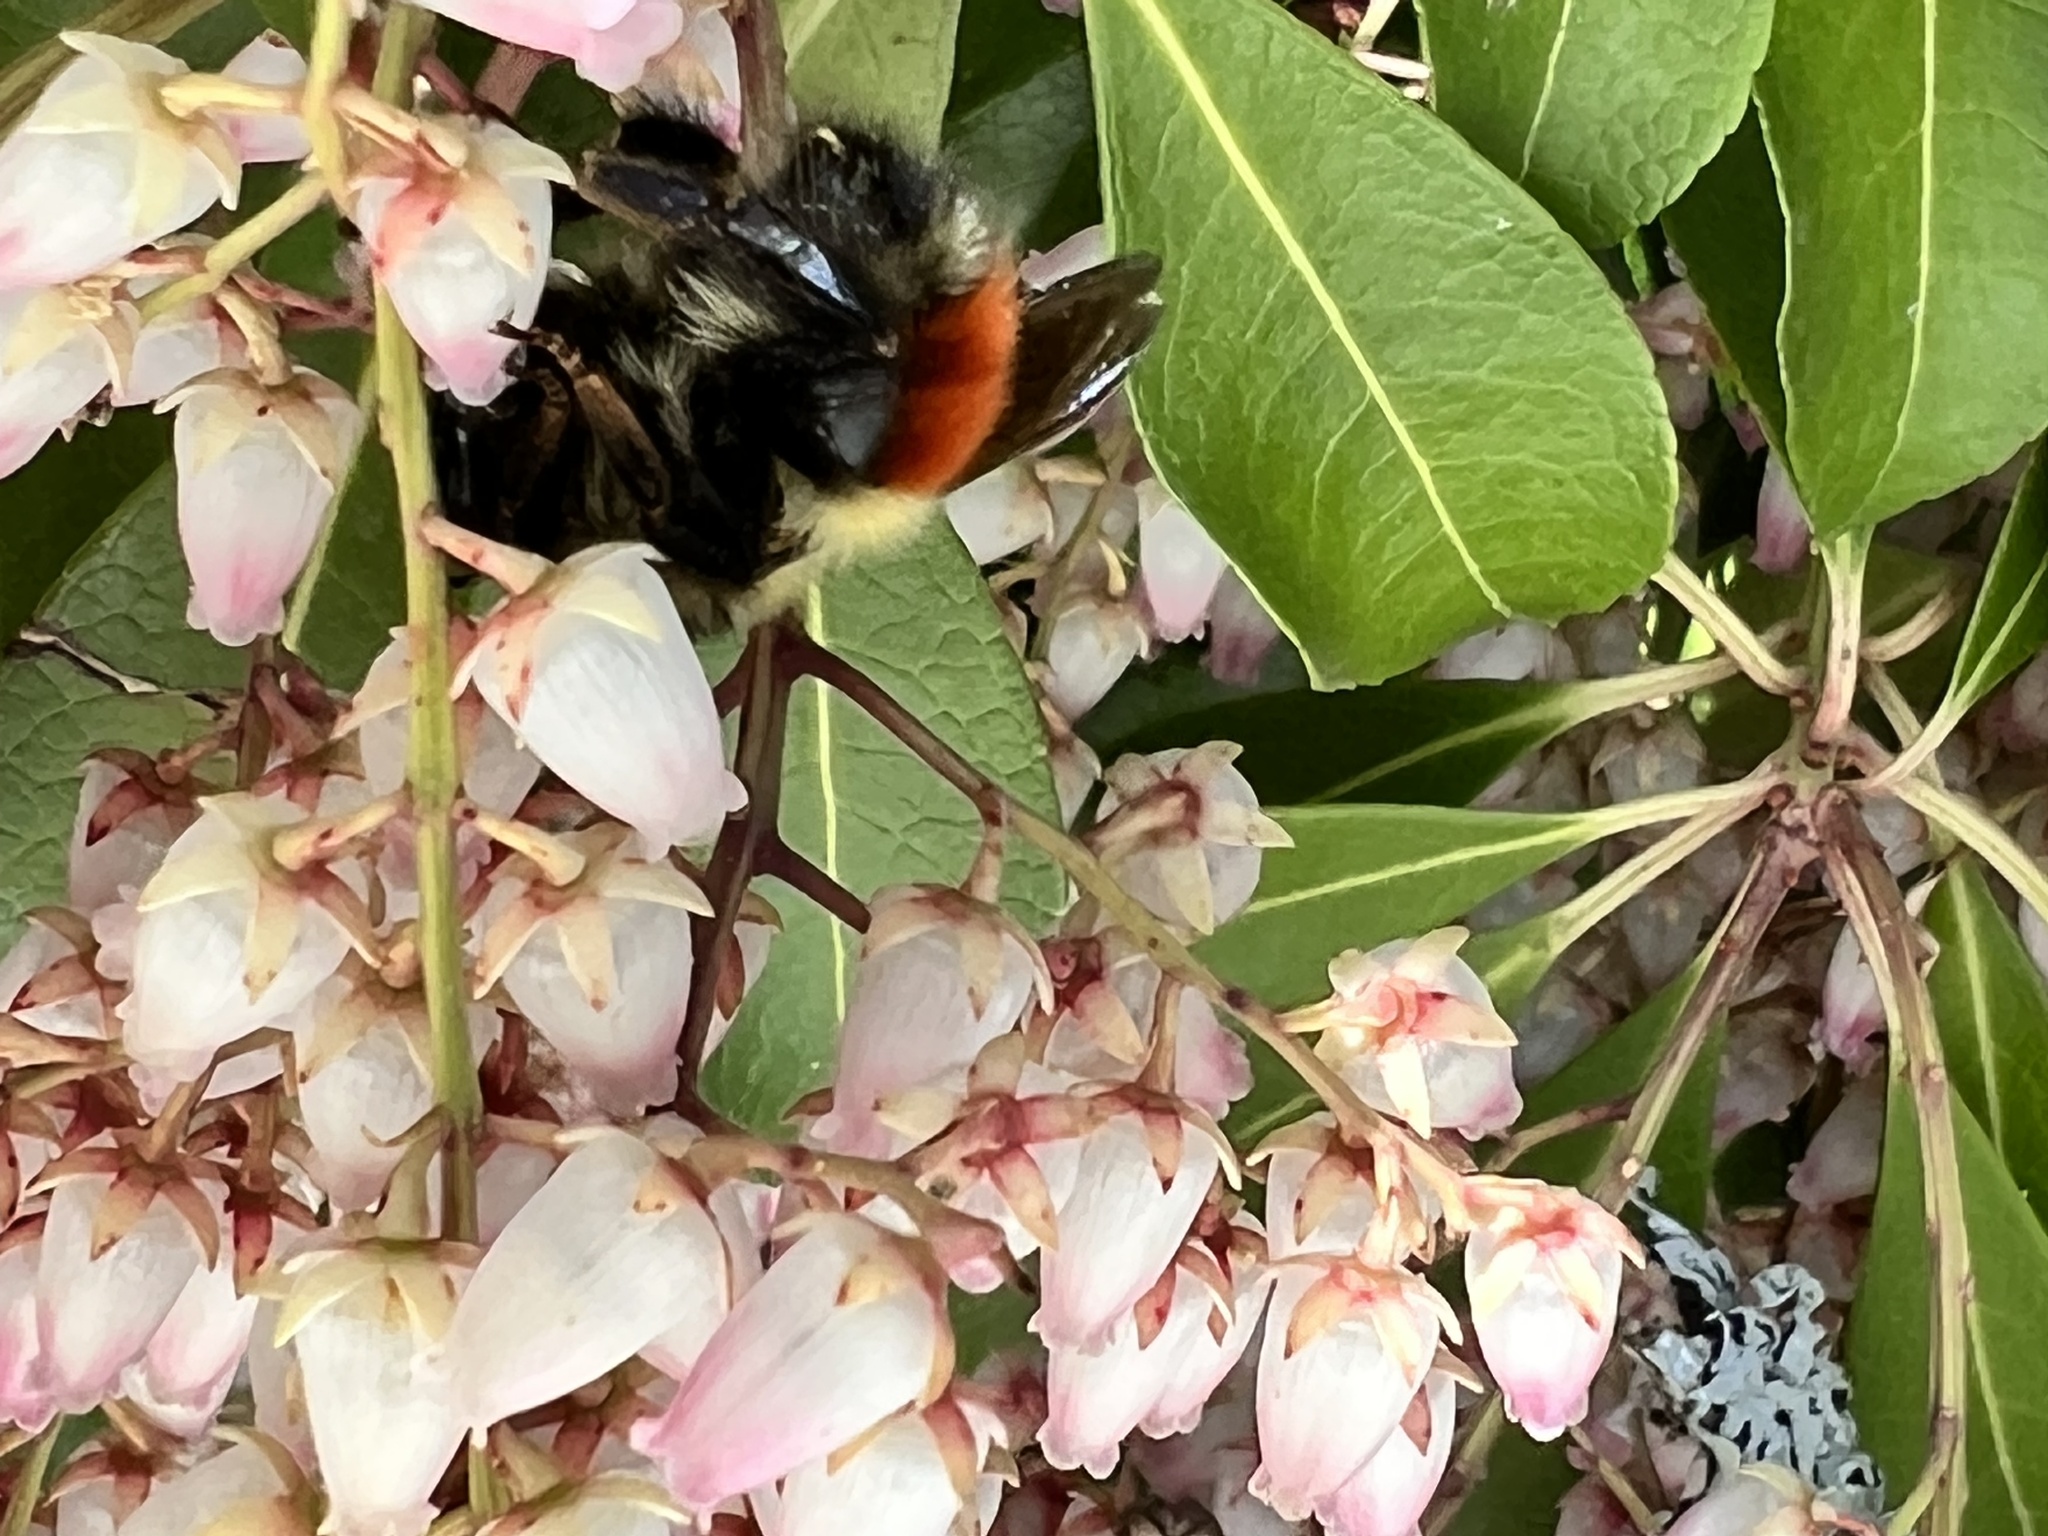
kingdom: Animalia
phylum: Arthropoda
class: Insecta
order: Hymenoptera
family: Apidae
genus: Bombus
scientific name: Bombus melanopygus
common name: Black tail bumble bee
